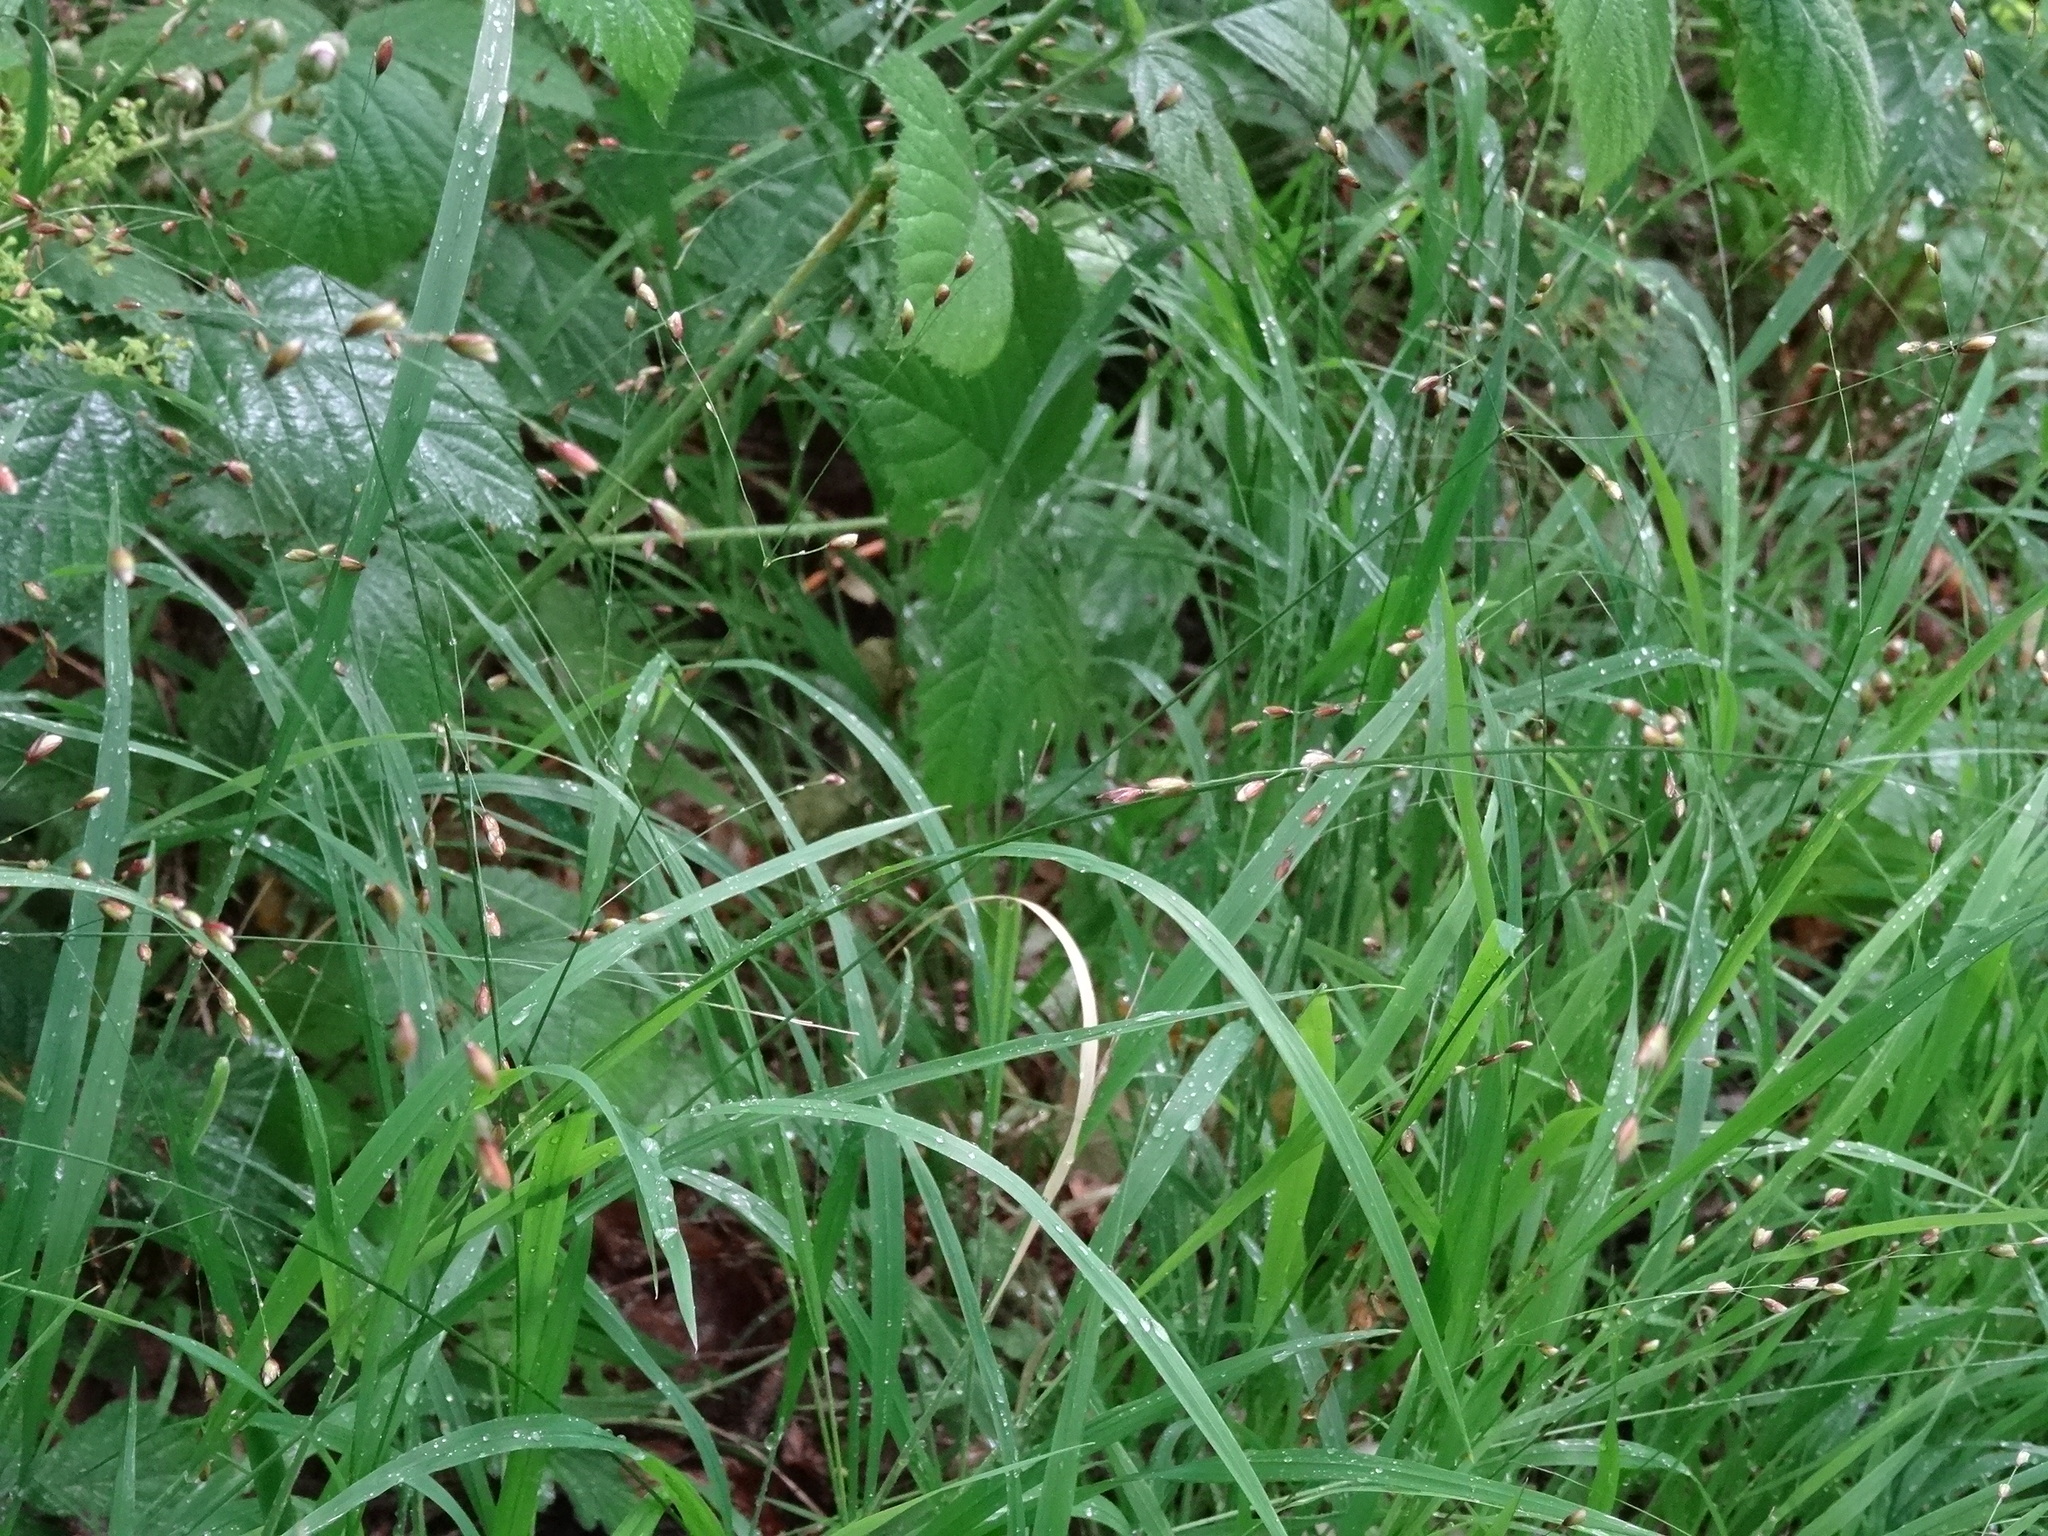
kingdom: Plantae
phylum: Tracheophyta
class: Liliopsida
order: Poales
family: Poaceae
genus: Melica
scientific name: Melica uniflora
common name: Wood melick
